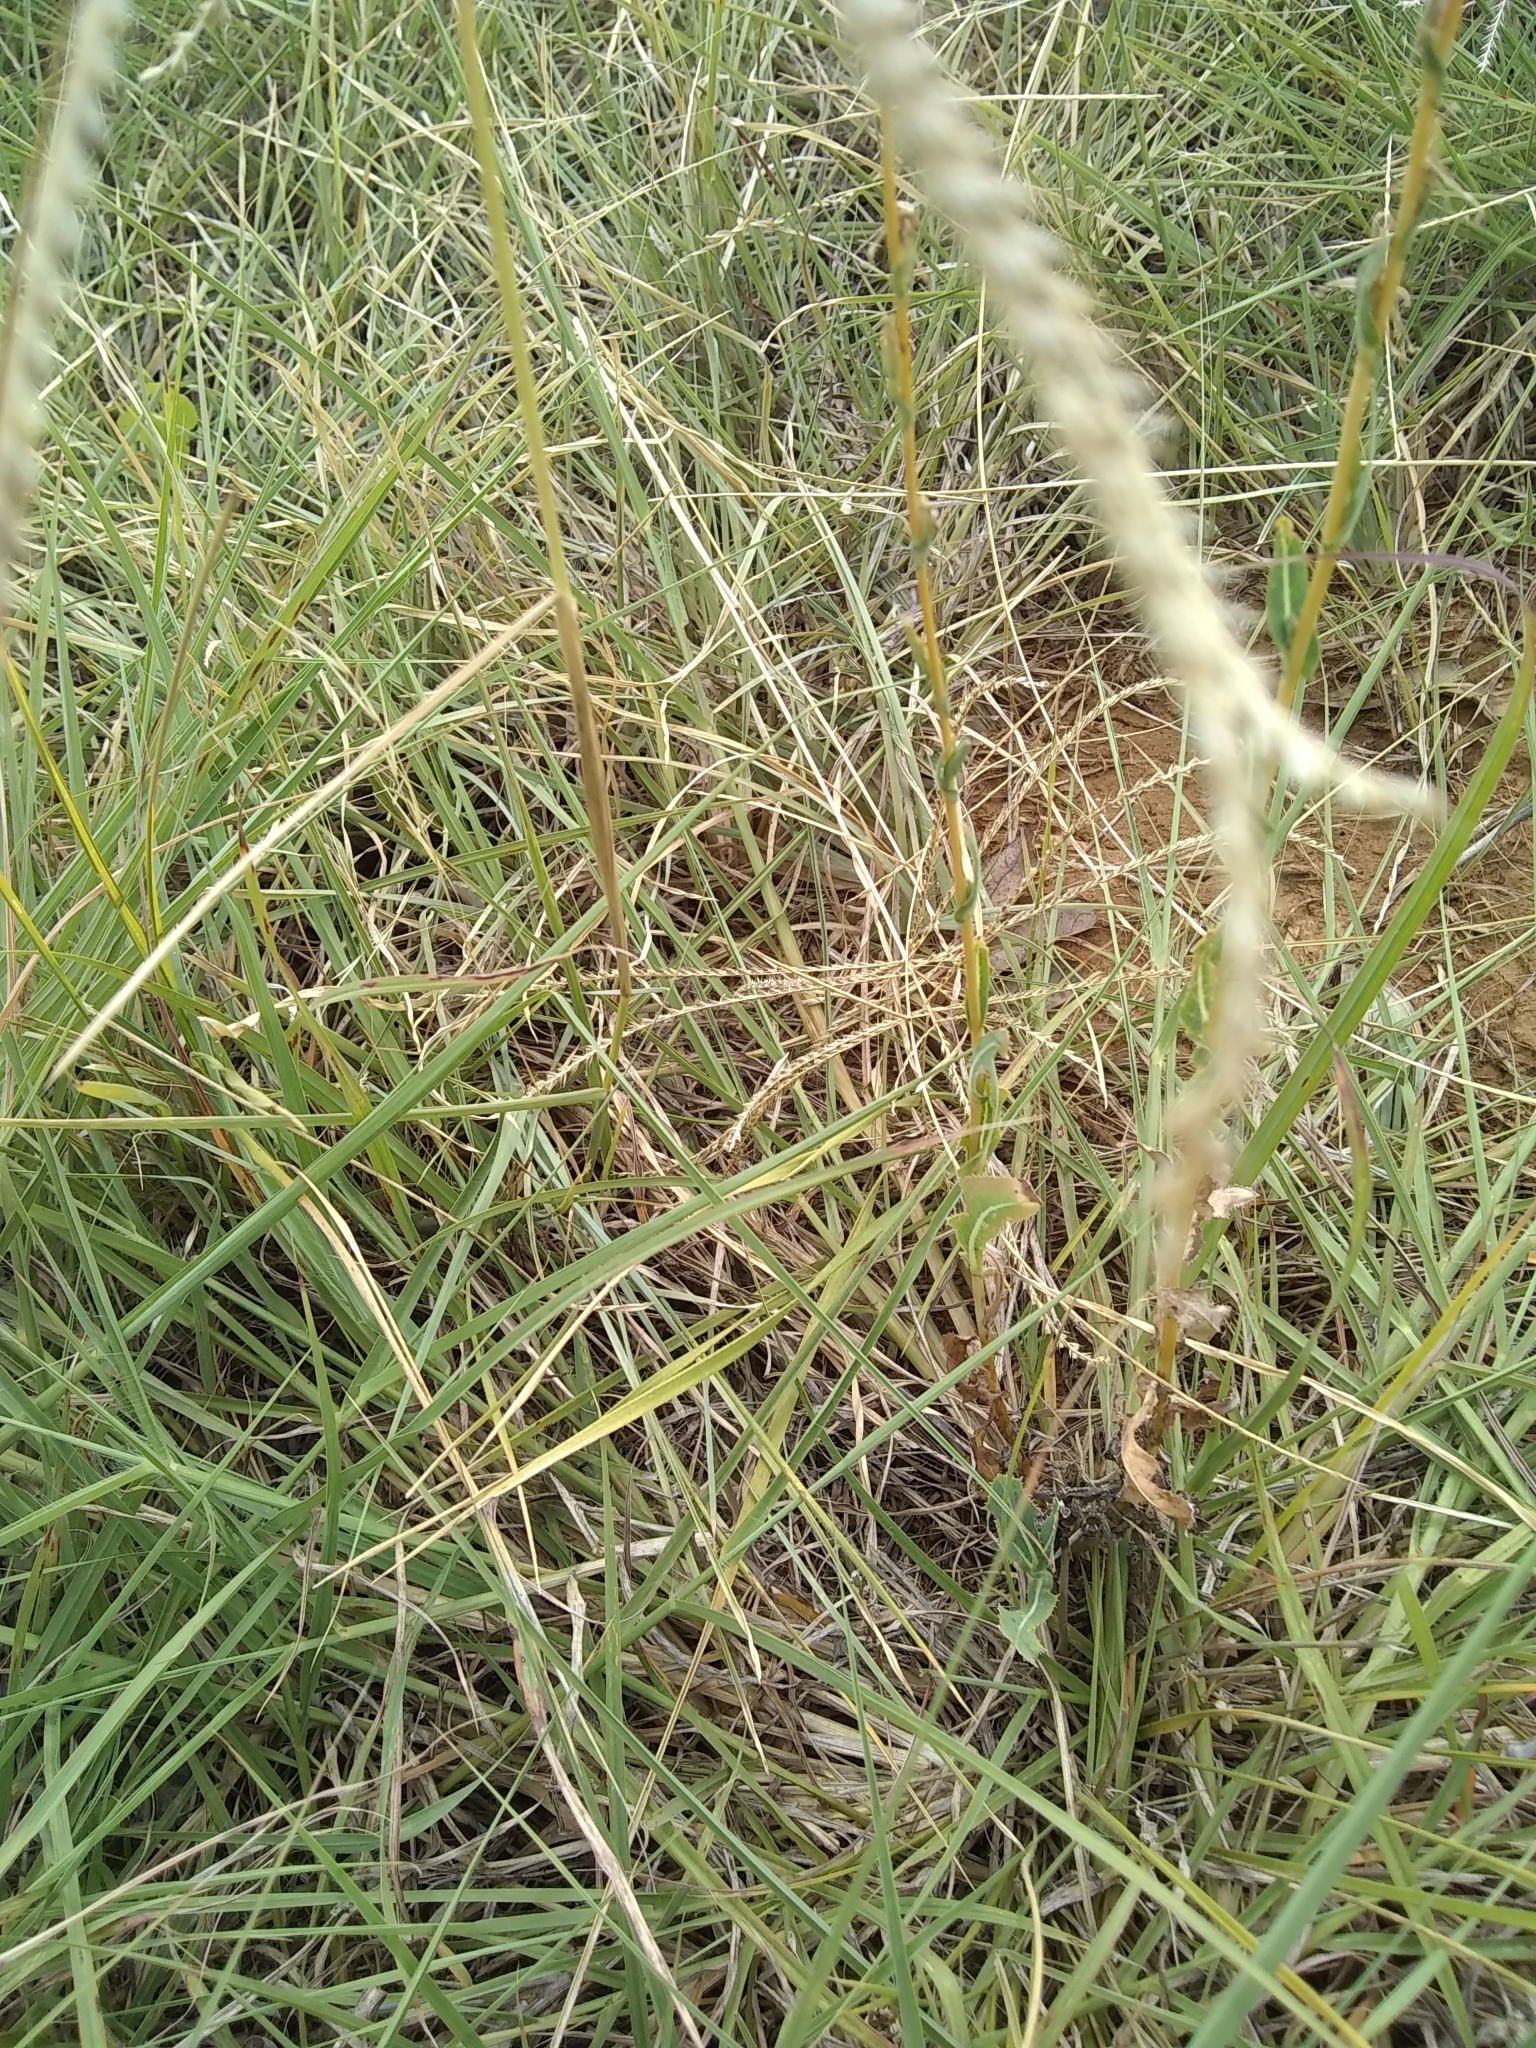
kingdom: Plantae
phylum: Tracheophyta
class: Liliopsida
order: Poales
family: Poaceae
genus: Chloris
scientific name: Chloris verticillata
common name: Tumble windmill grass
